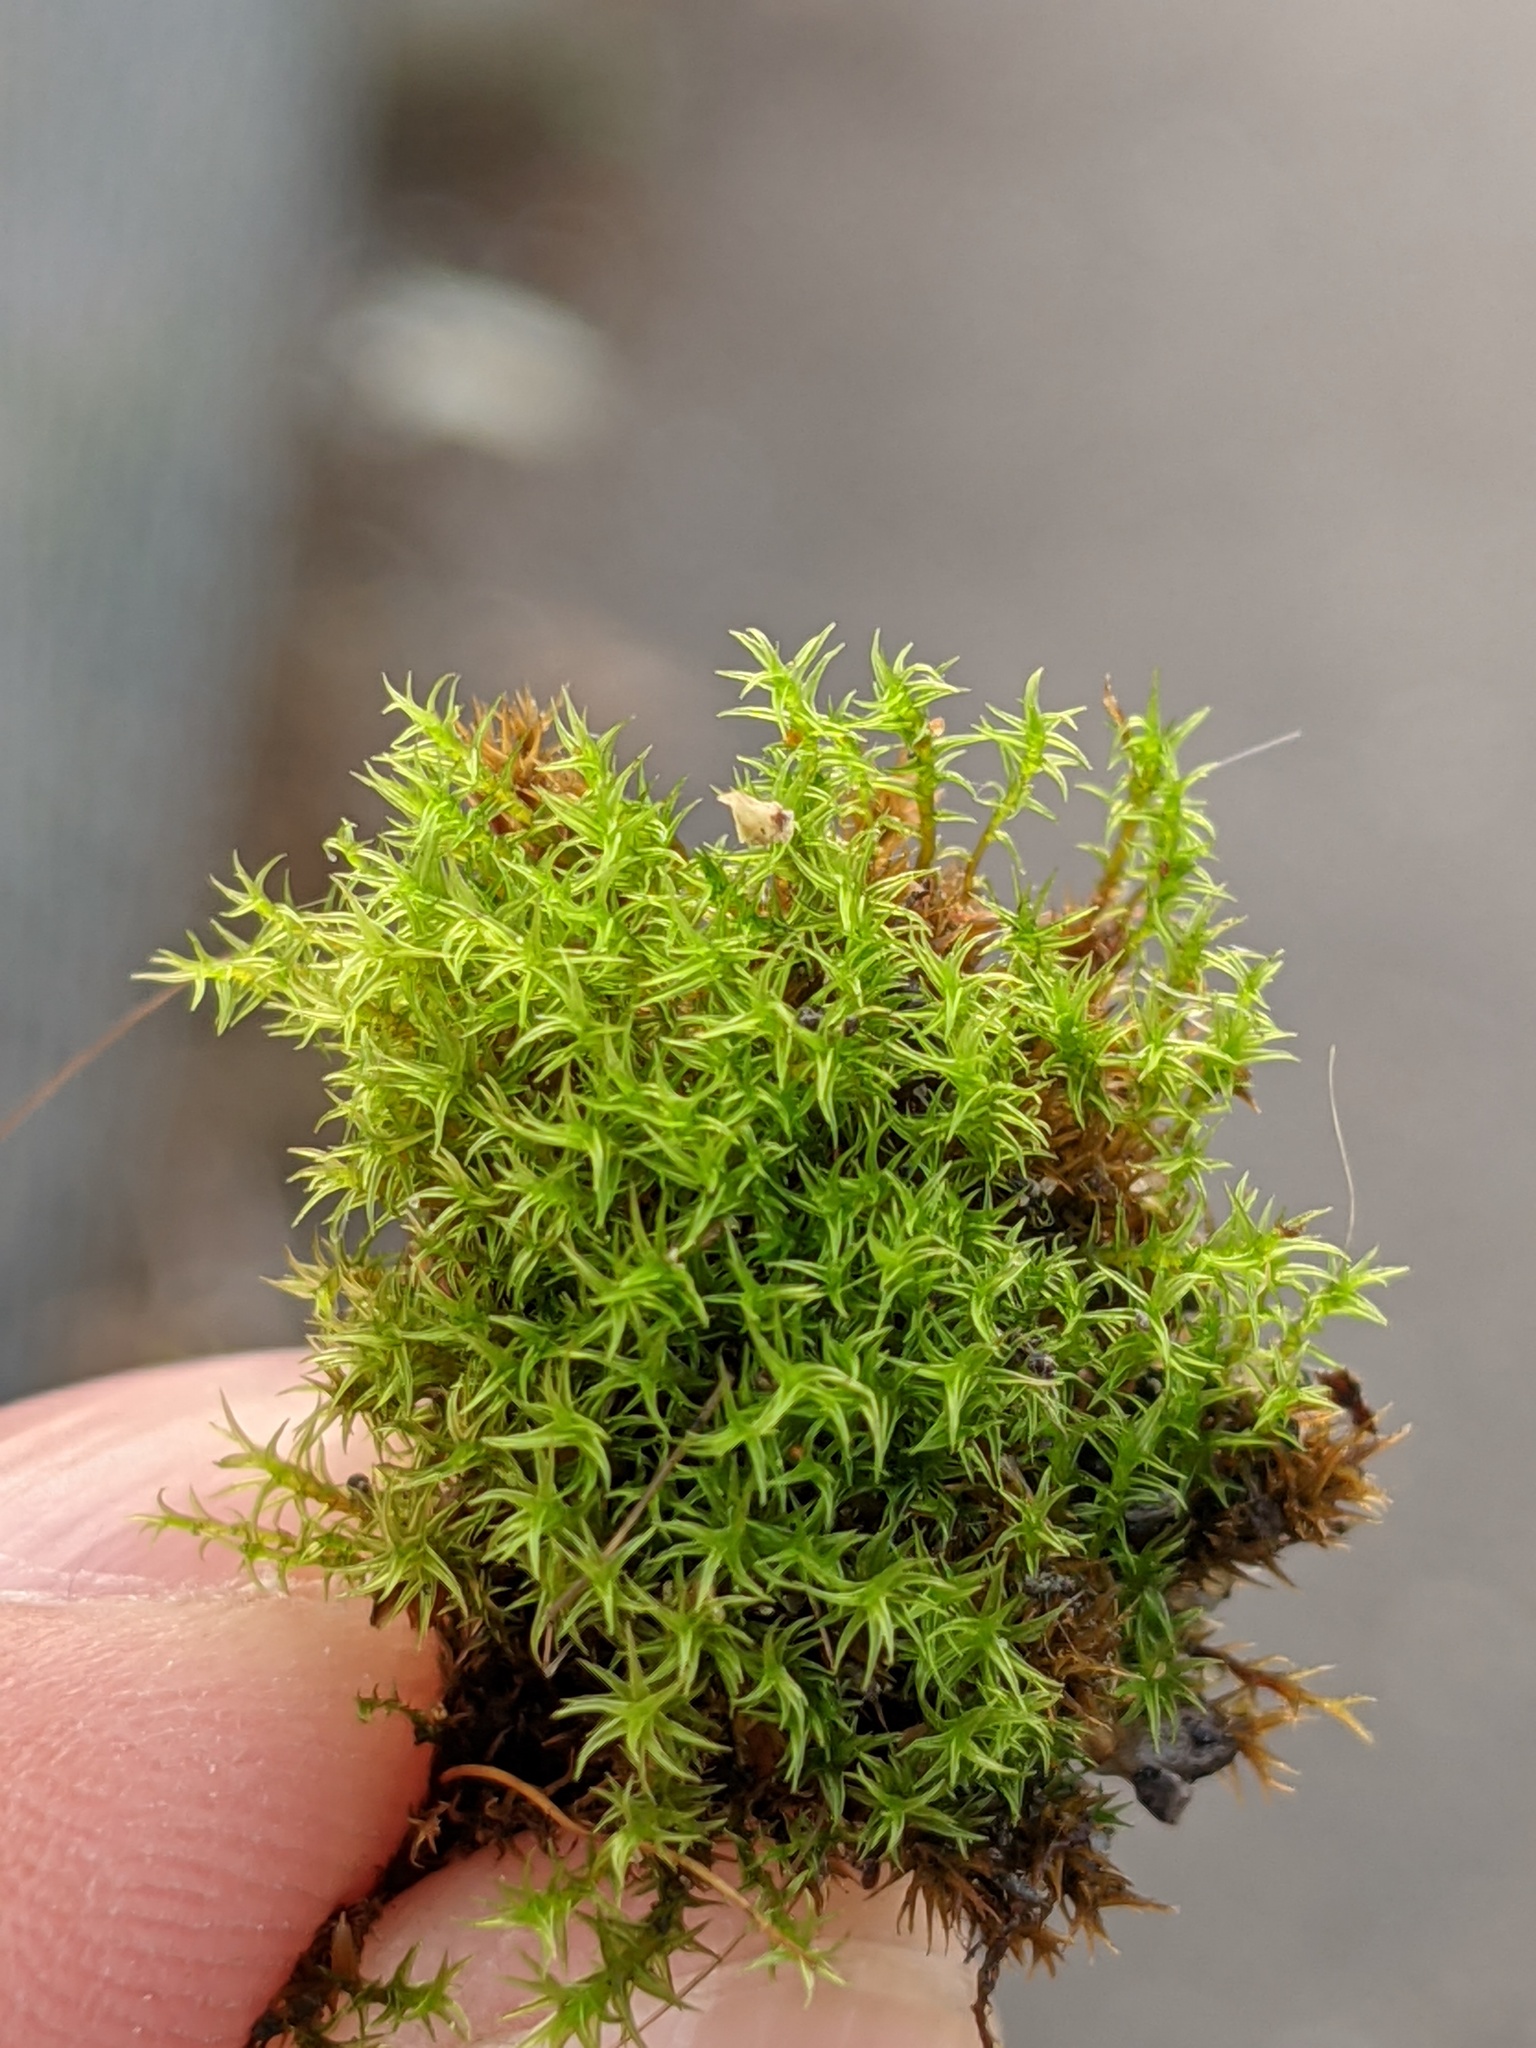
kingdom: Plantae
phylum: Bryophyta
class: Bryopsida
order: Dicranales
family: Ditrichaceae
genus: Ceratodon
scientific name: Ceratodon purpureus
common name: Redshank
